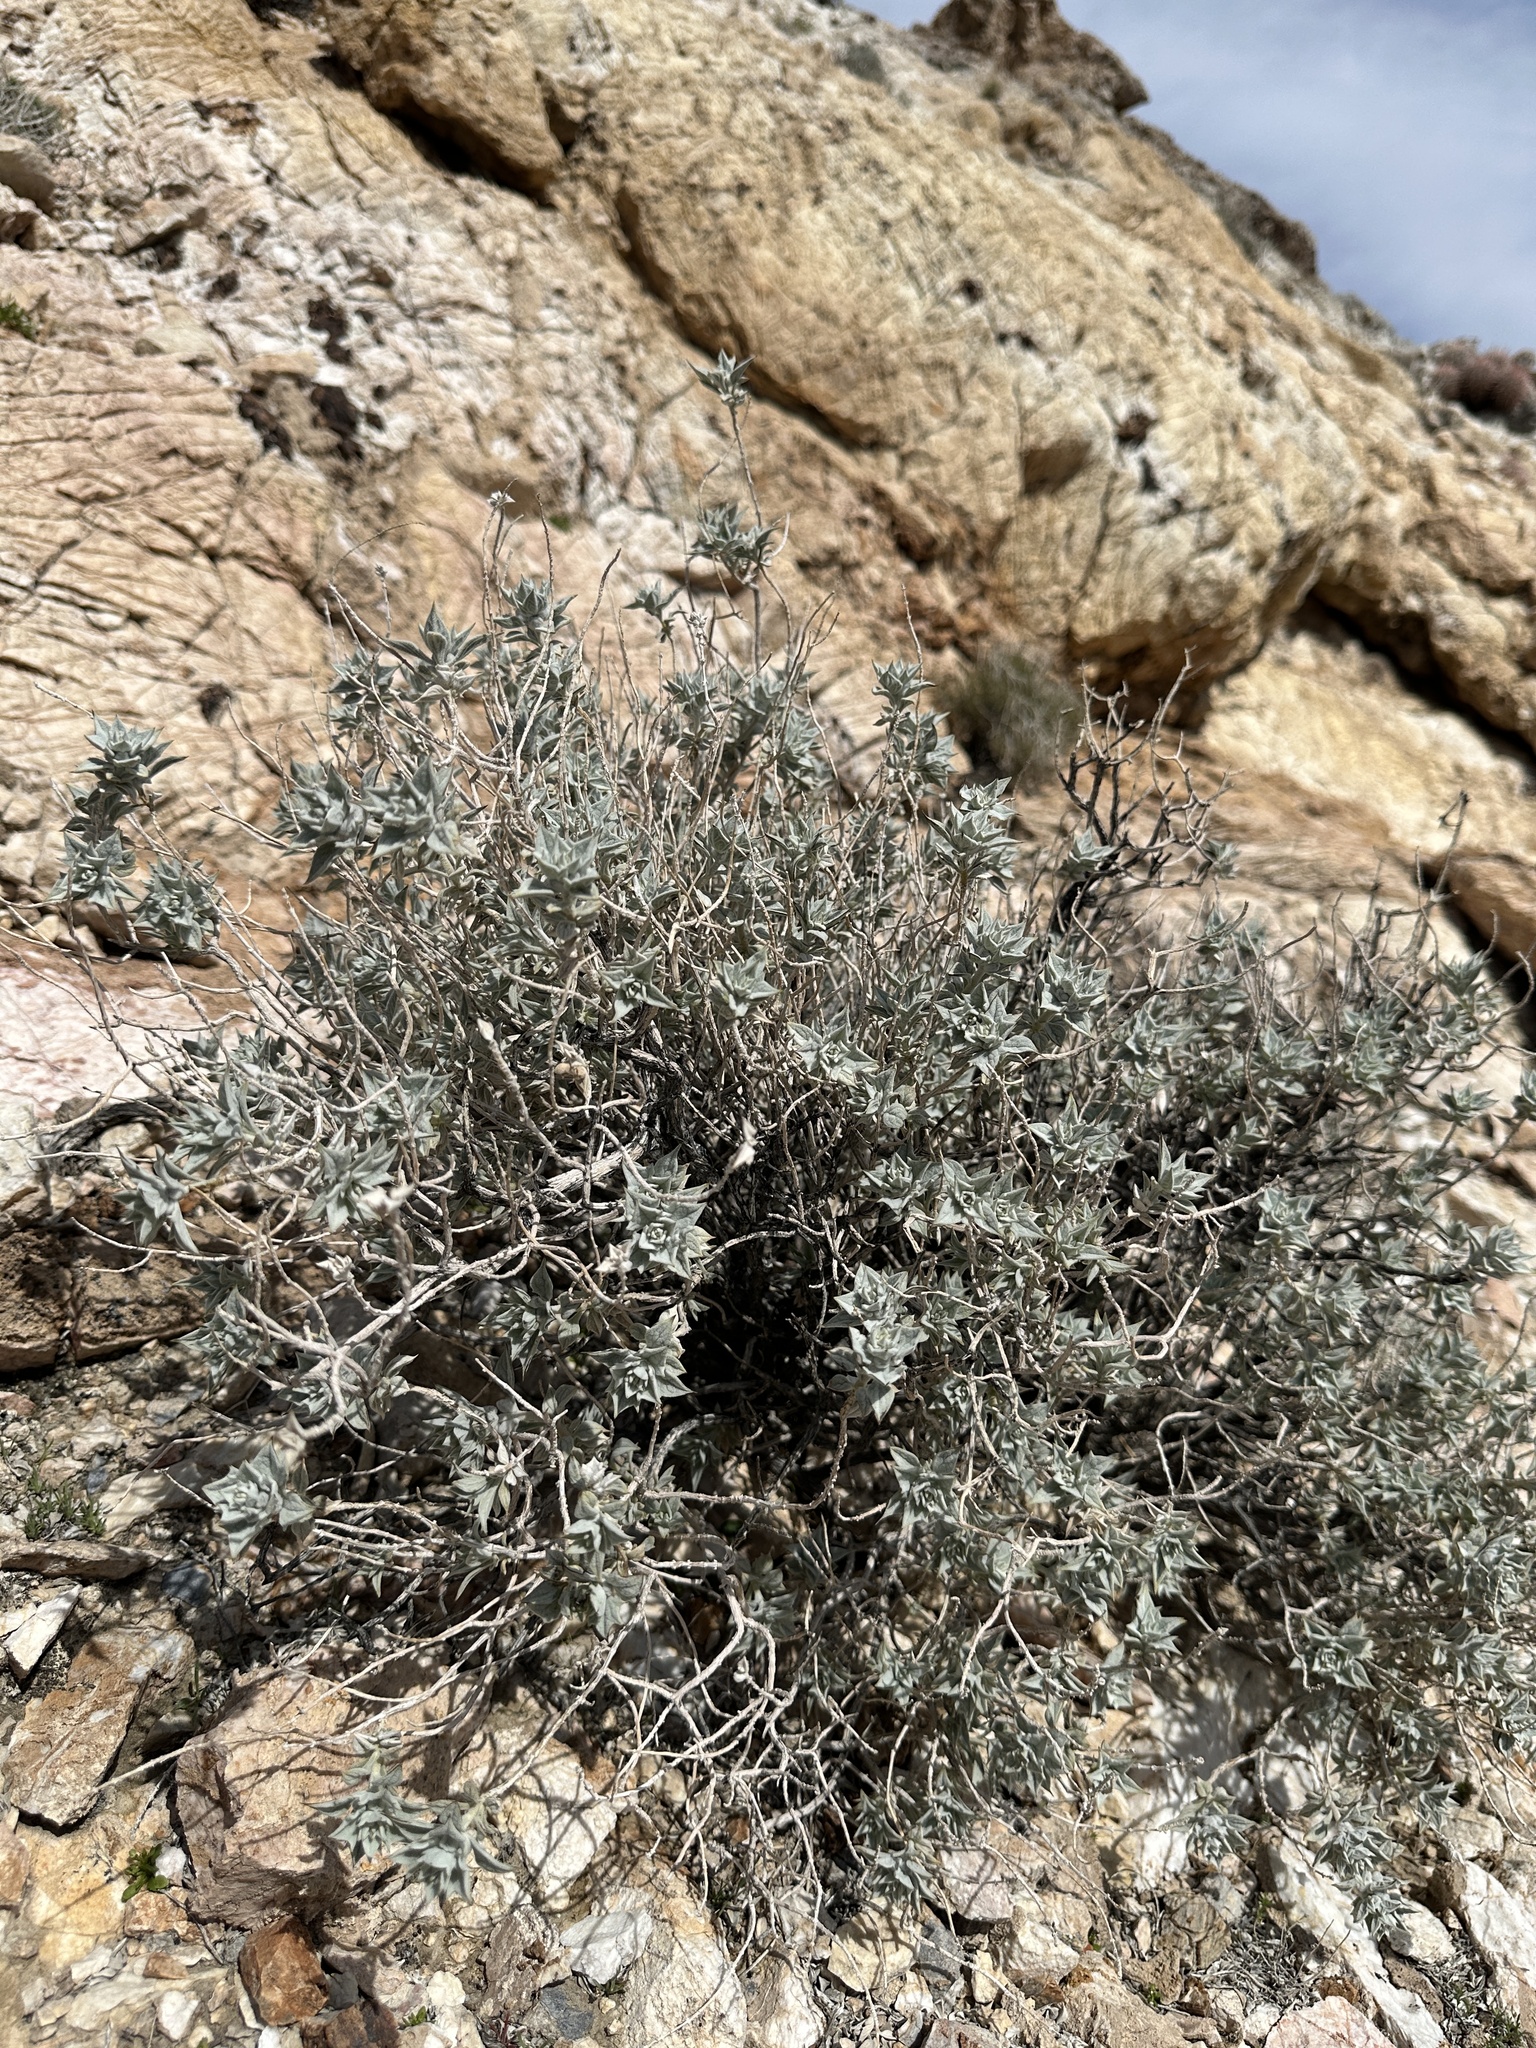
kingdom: Plantae
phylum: Tracheophyta
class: Magnoliopsida
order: Lamiales
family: Lamiaceae
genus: Salvia
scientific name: Salvia funerea
